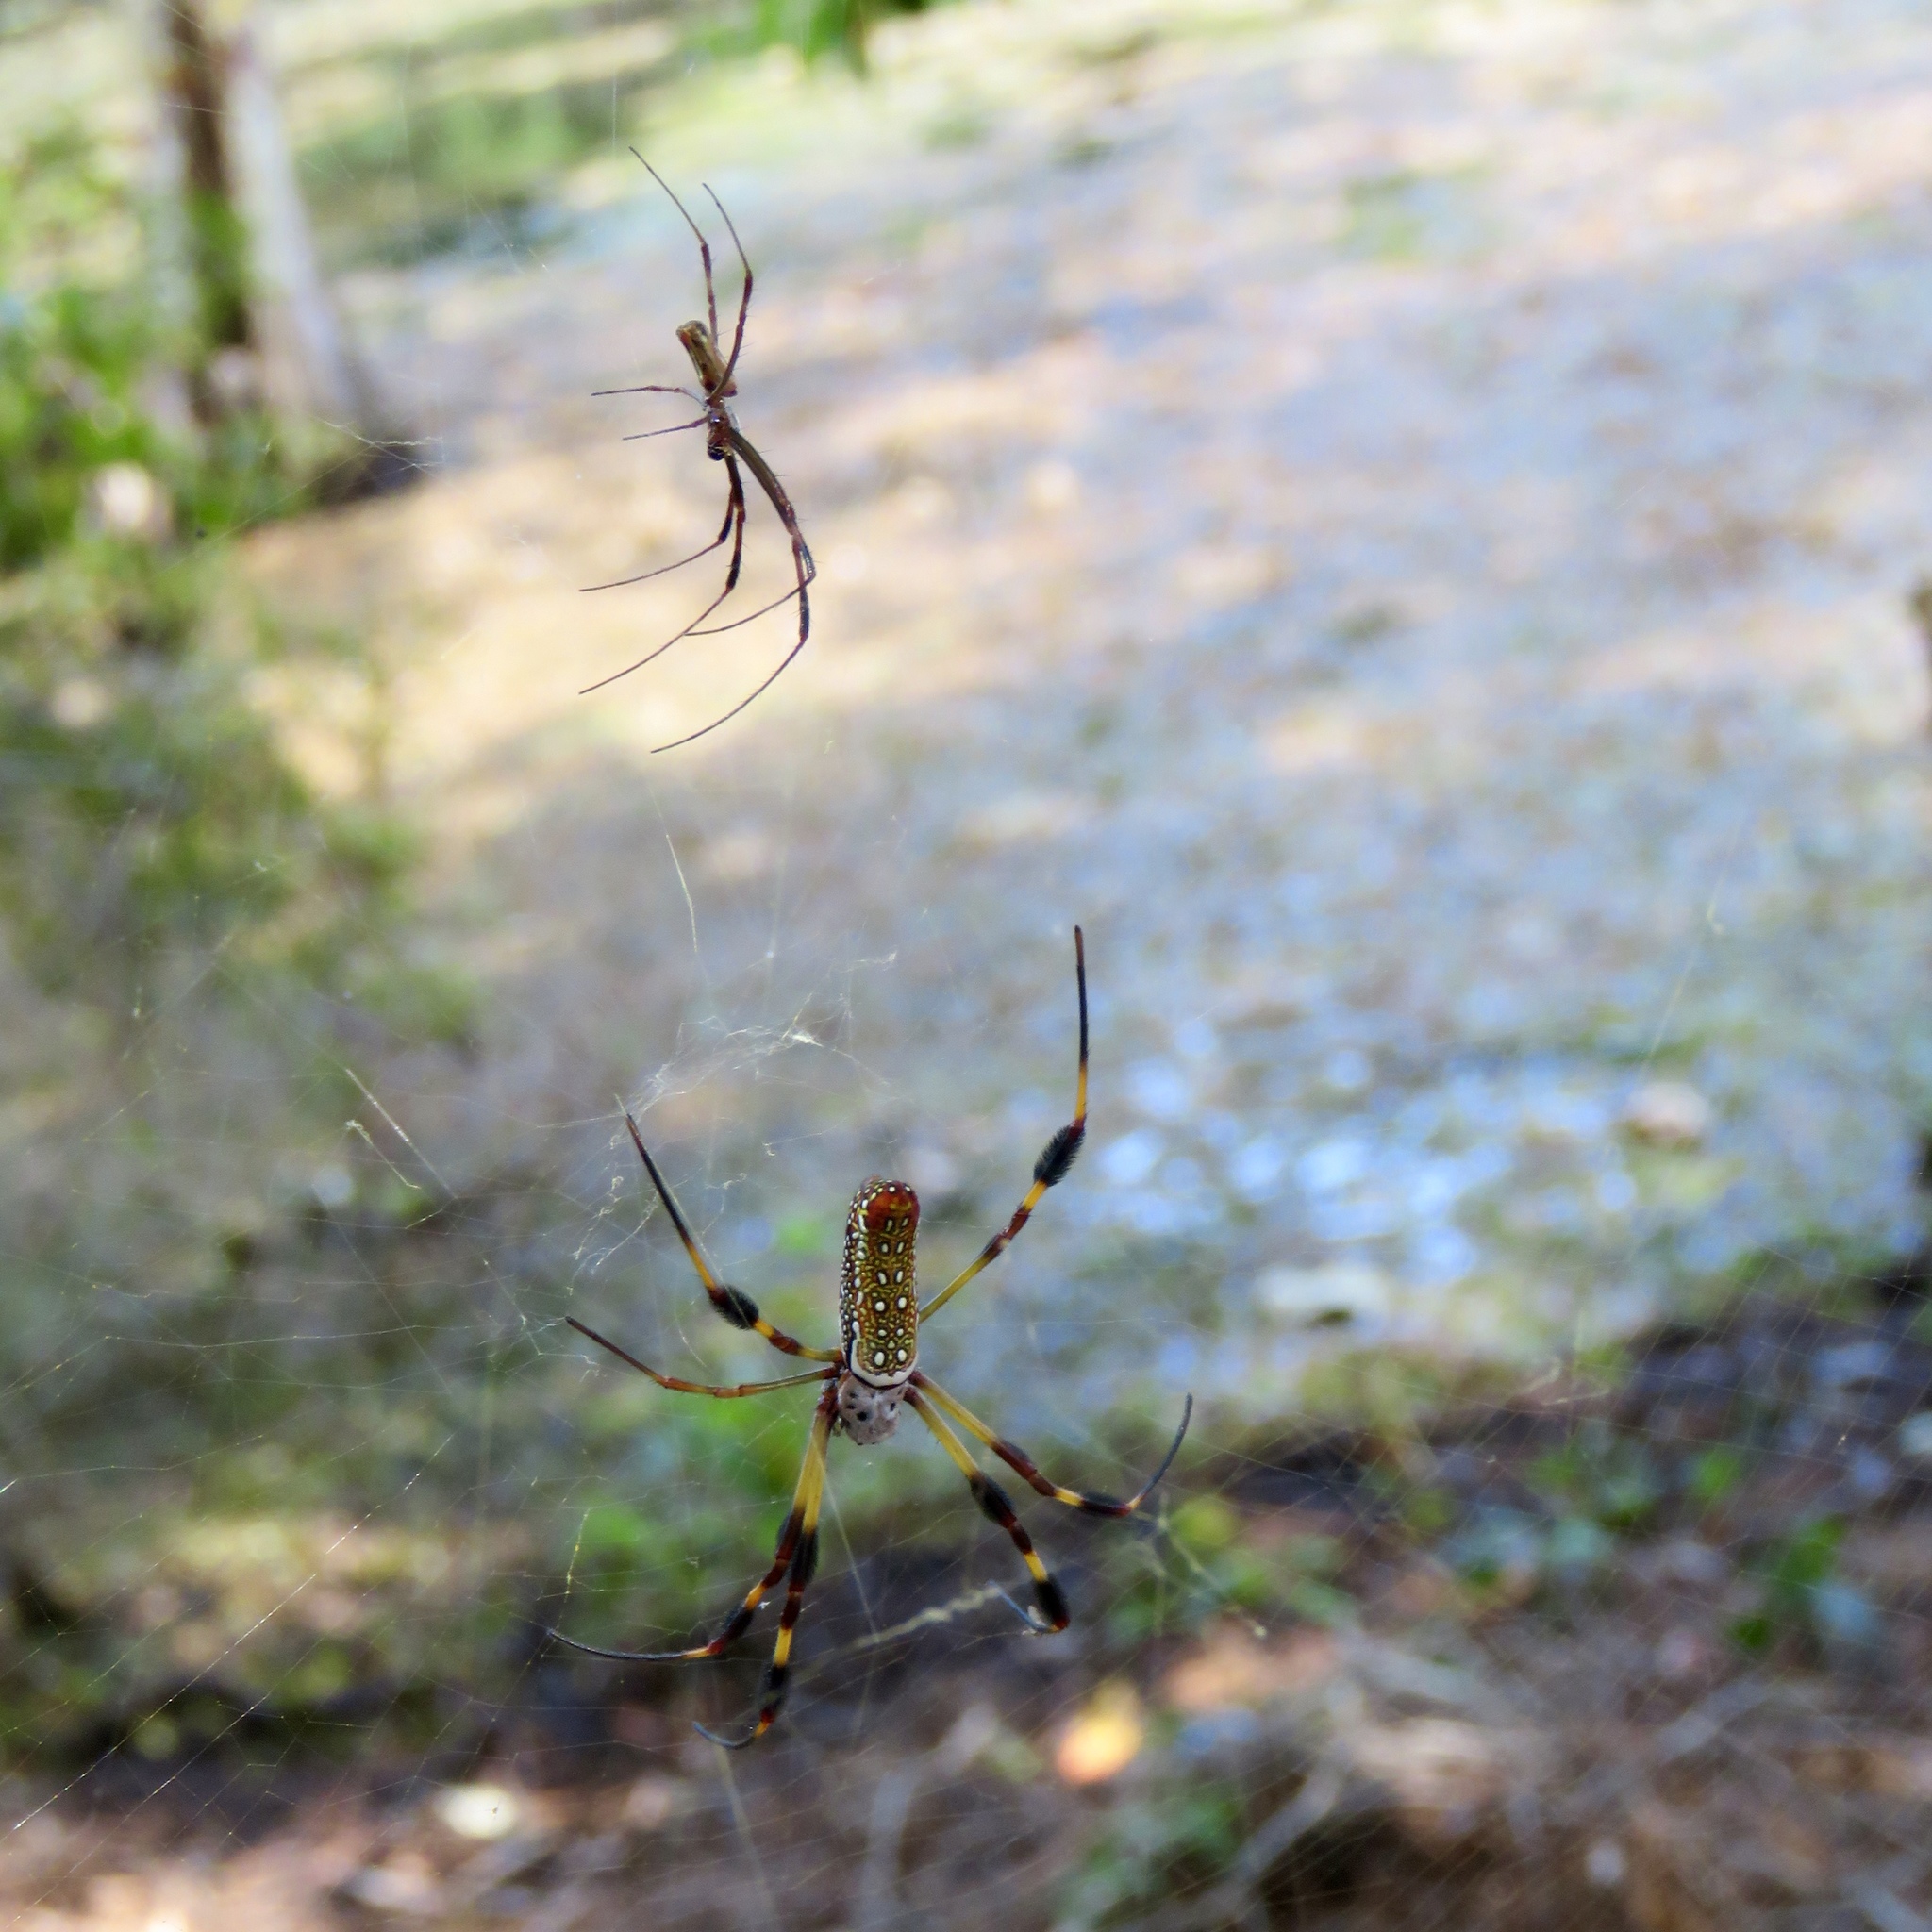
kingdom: Animalia
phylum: Arthropoda
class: Arachnida
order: Araneae
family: Araneidae
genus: Trichonephila
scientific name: Trichonephila clavipes
